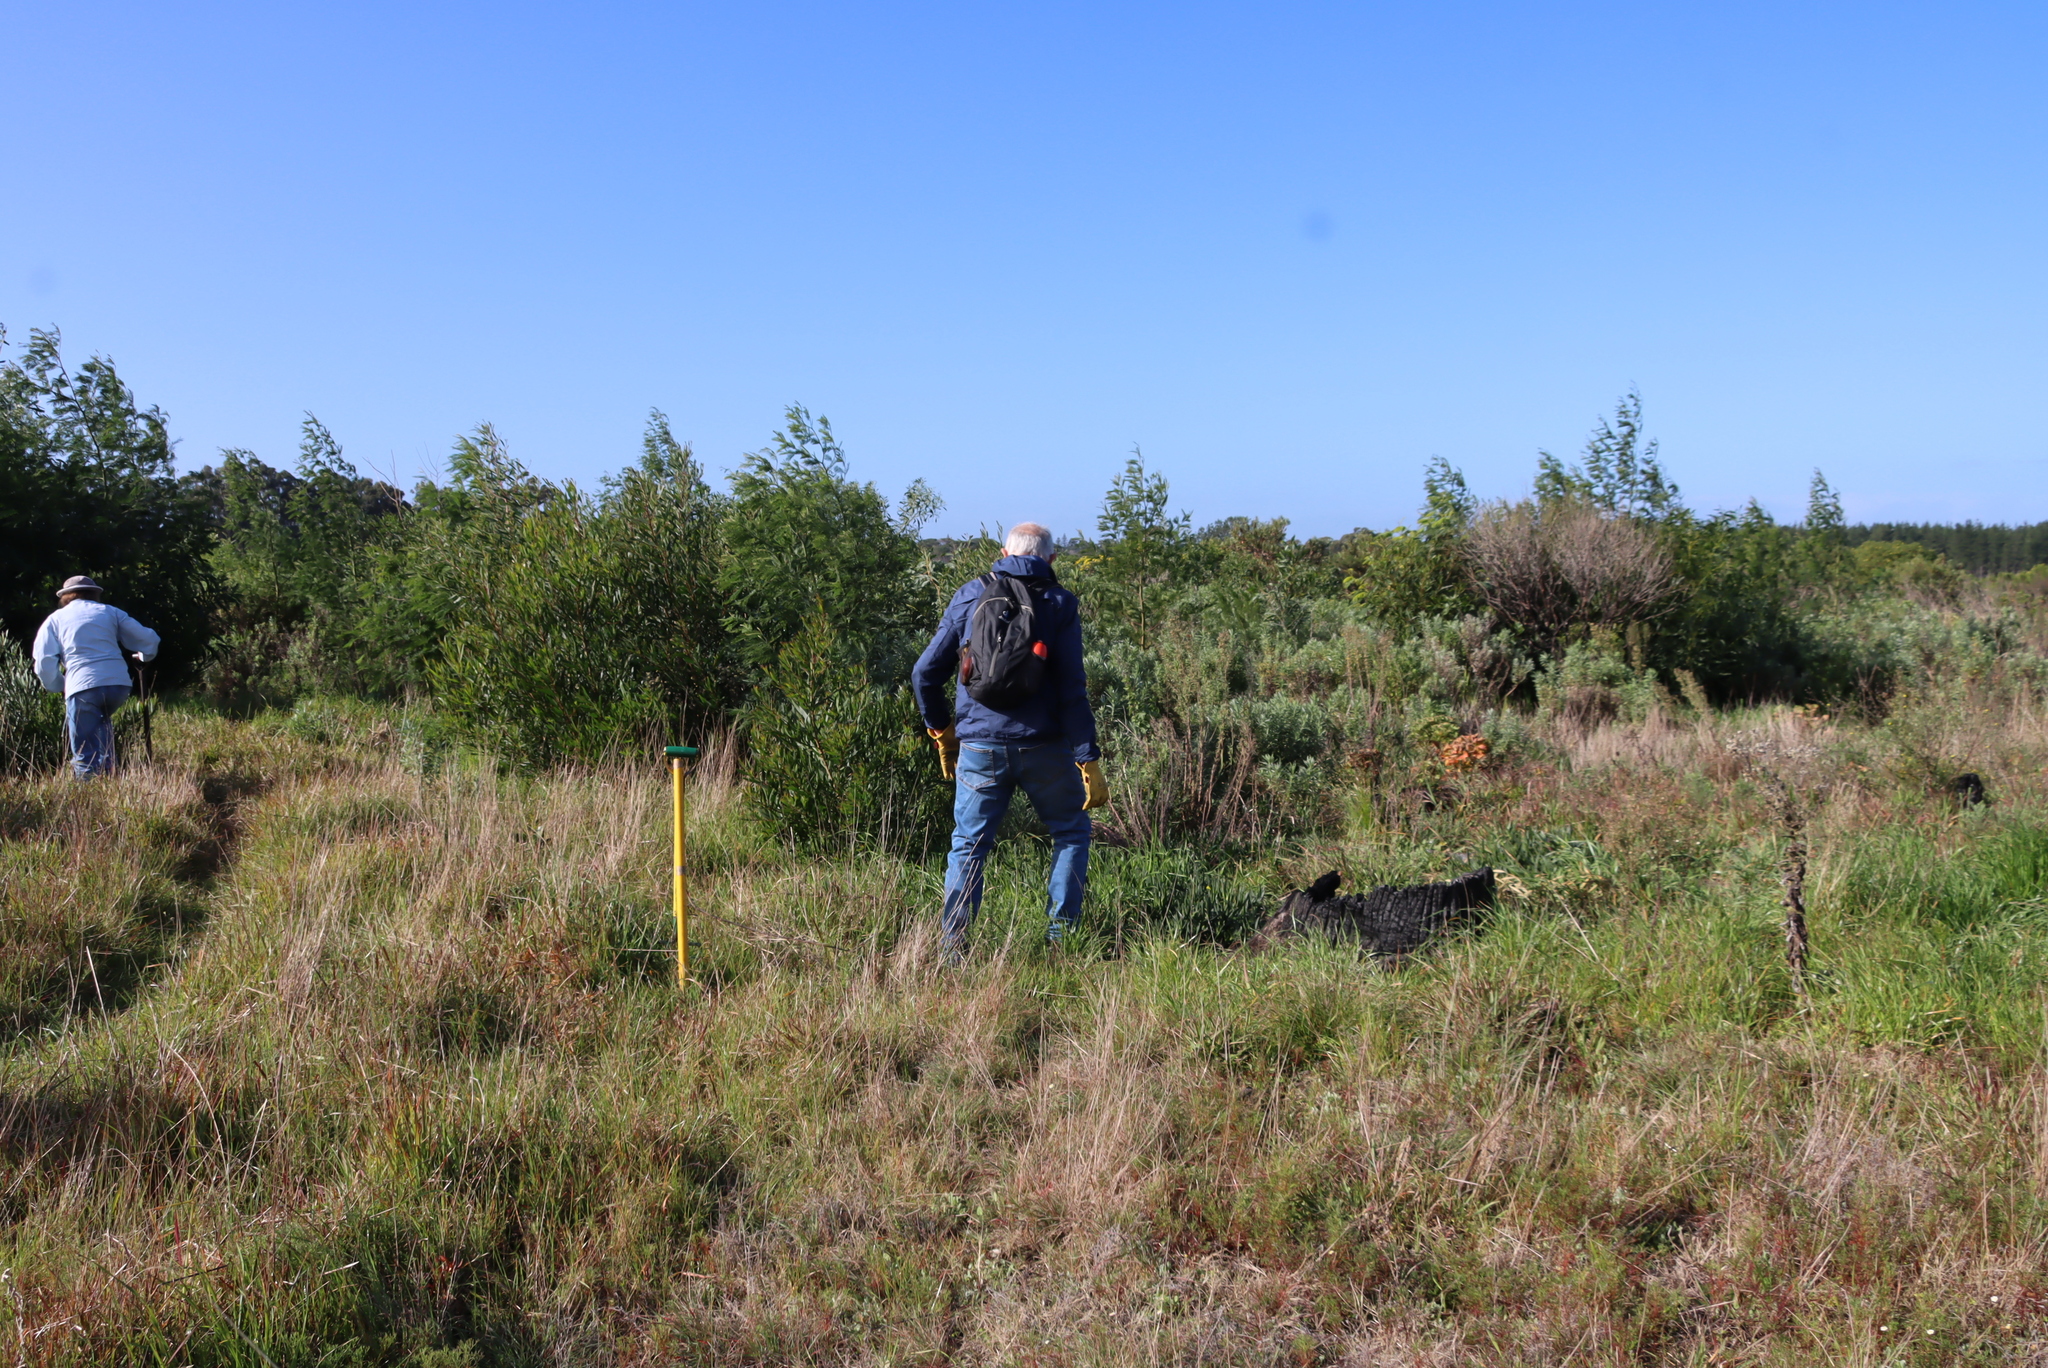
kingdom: Plantae
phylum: Tracheophyta
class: Magnoliopsida
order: Fabales
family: Fabaceae
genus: Acacia
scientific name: Acacia longifolia
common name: Sydney golden wattle
